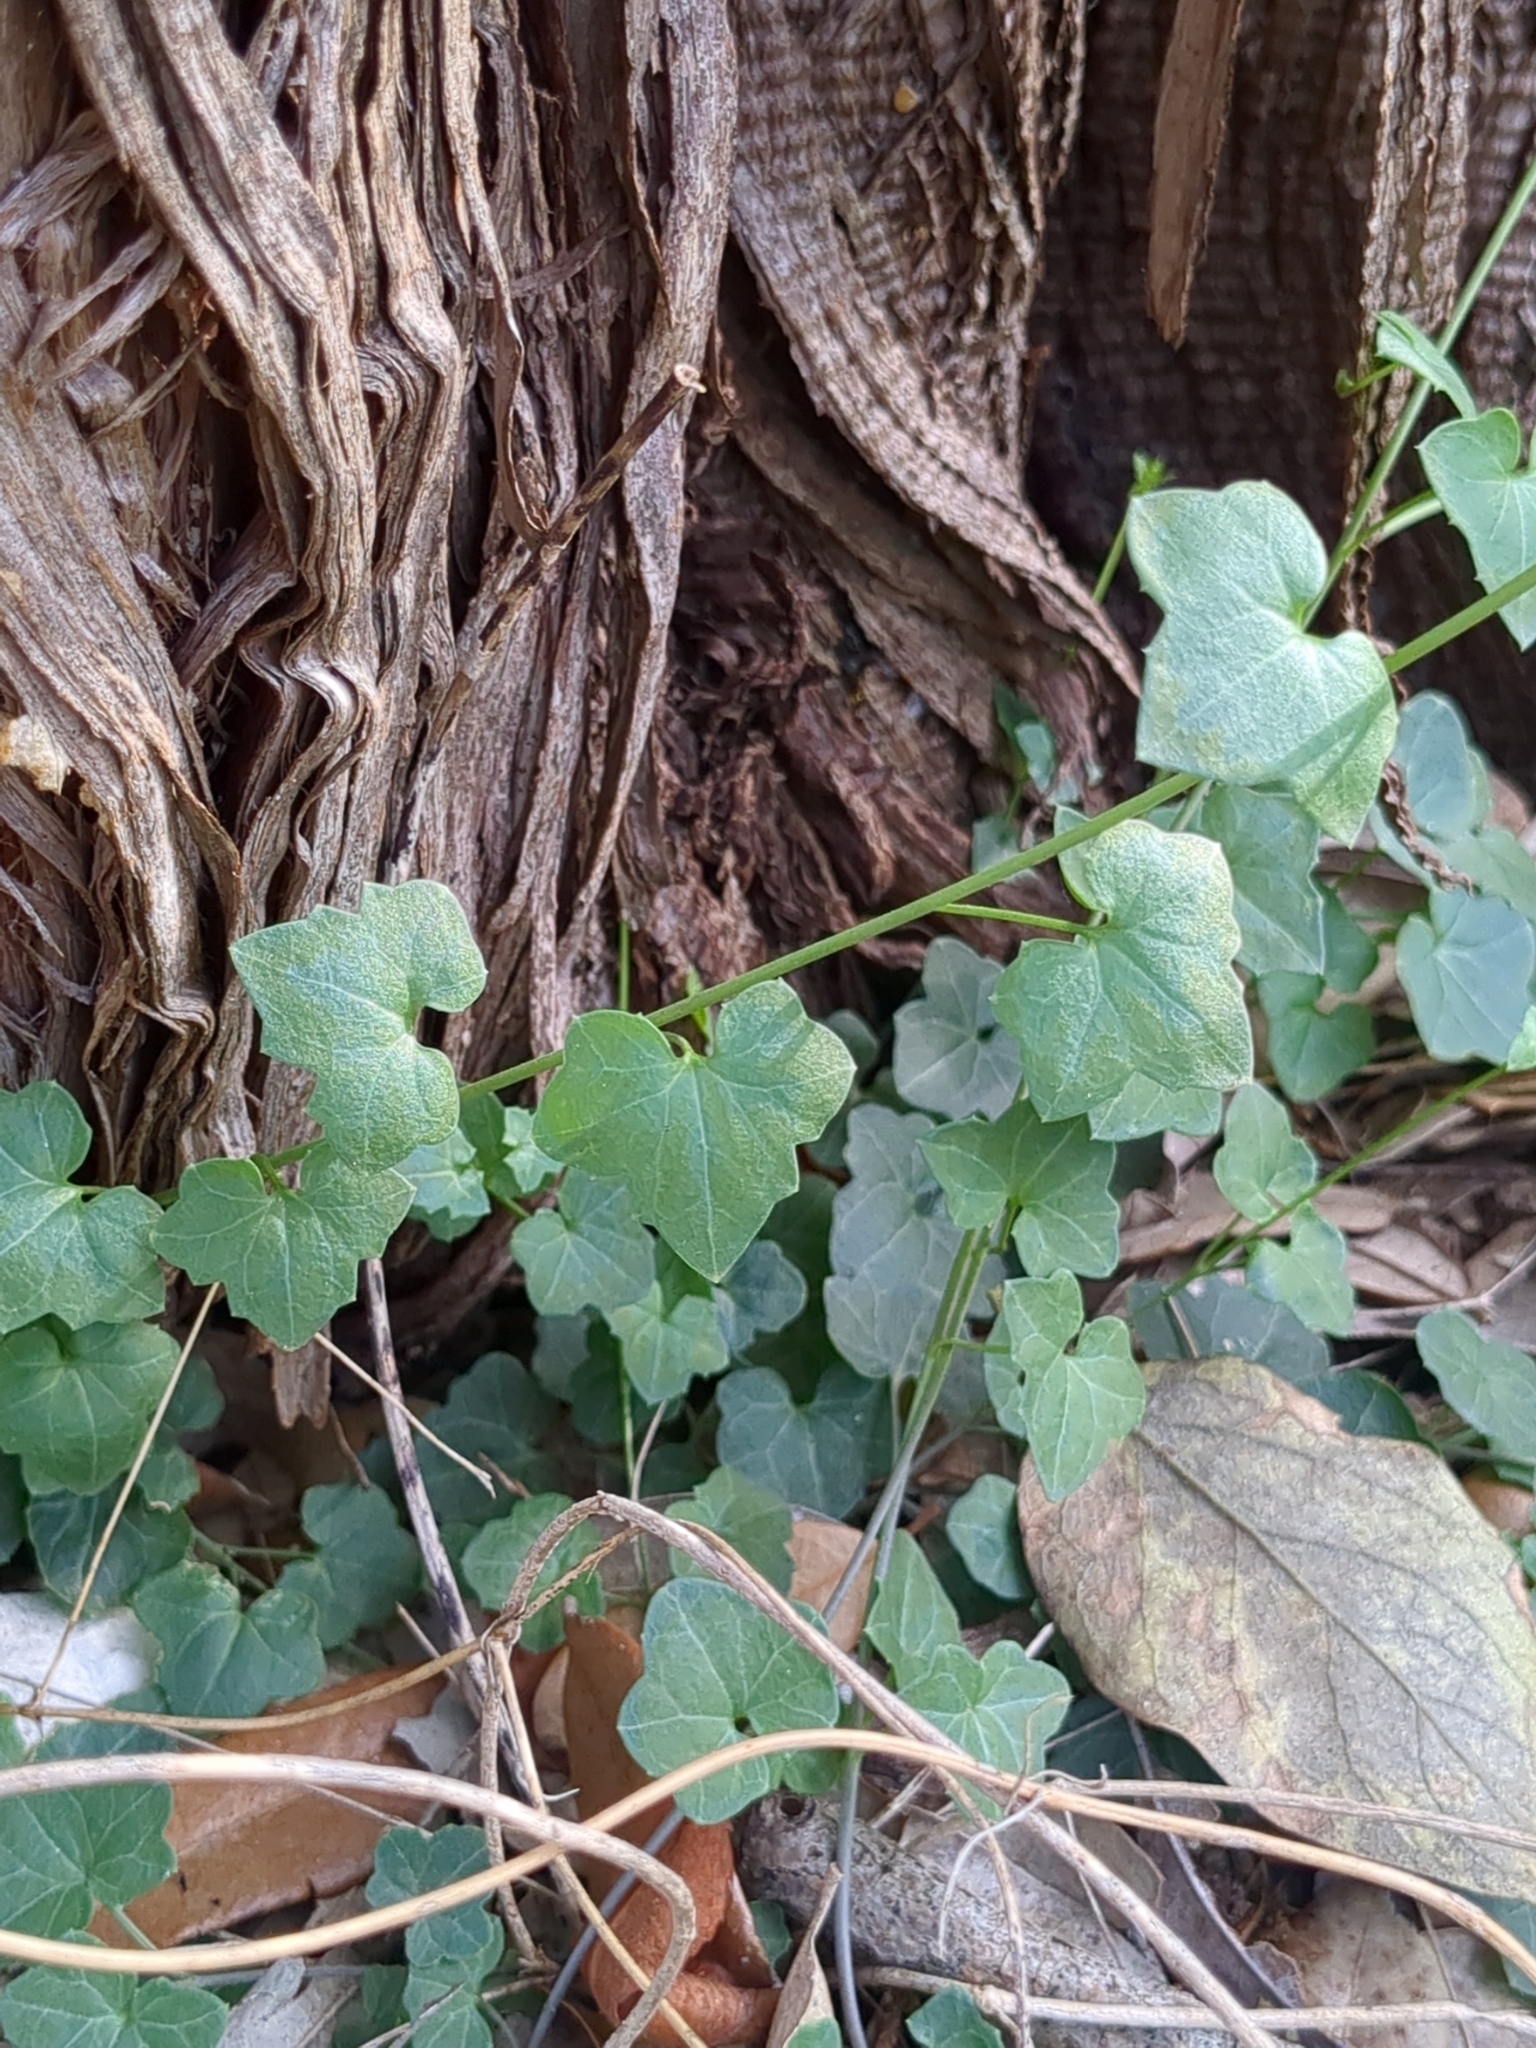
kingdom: Plantae
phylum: Tracheophyta
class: Magnoliopsida
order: Lamiales
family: Plantaginaceae
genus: Maurandella
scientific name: Maurandella antirrhiniflora
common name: Violet twining-snapdragon
